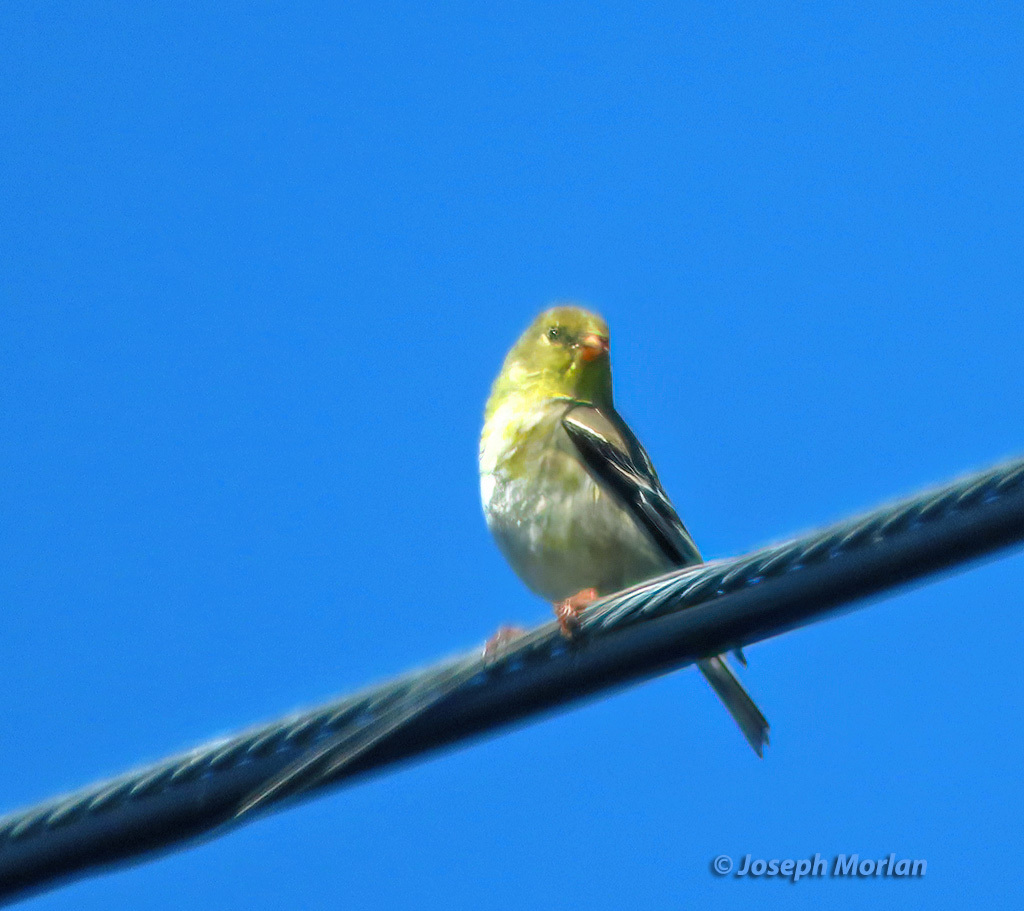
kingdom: Animalia
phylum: Chordata
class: Aves
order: Passeriformes
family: Fringillidae
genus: Spinus
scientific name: Spinus tristis
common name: American goldfinch
